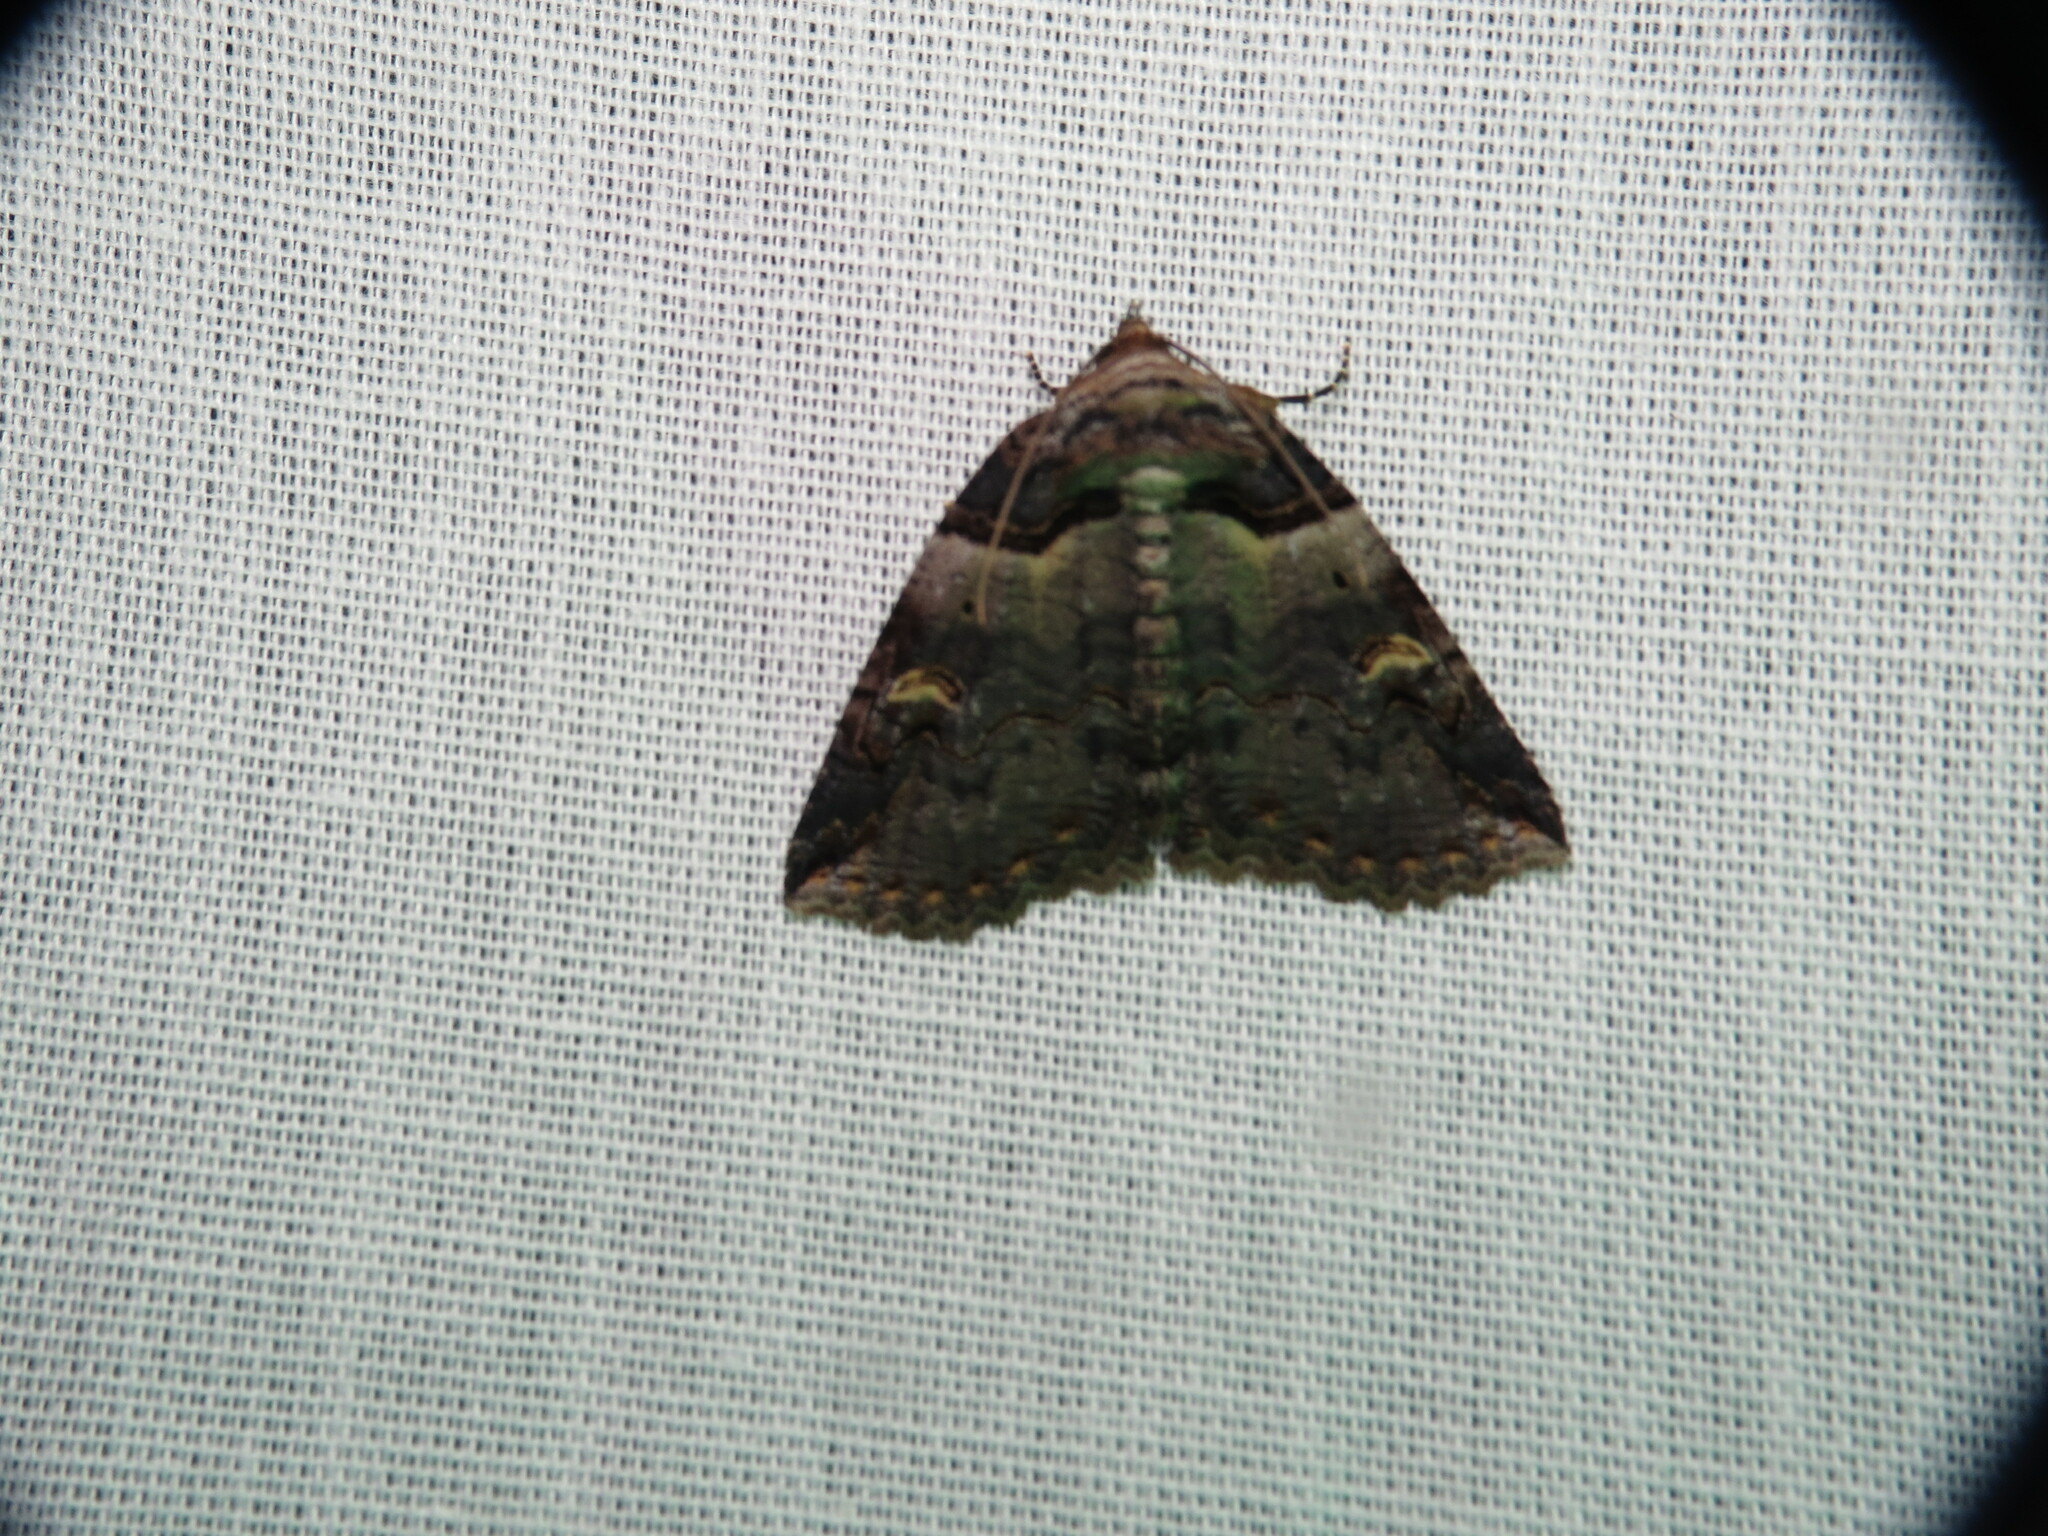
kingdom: Animalia
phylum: Arthropoda
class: Insecta
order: Lepidoptera
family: Erebidae
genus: Zale
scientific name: Zale intenta
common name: Intent zale moth
